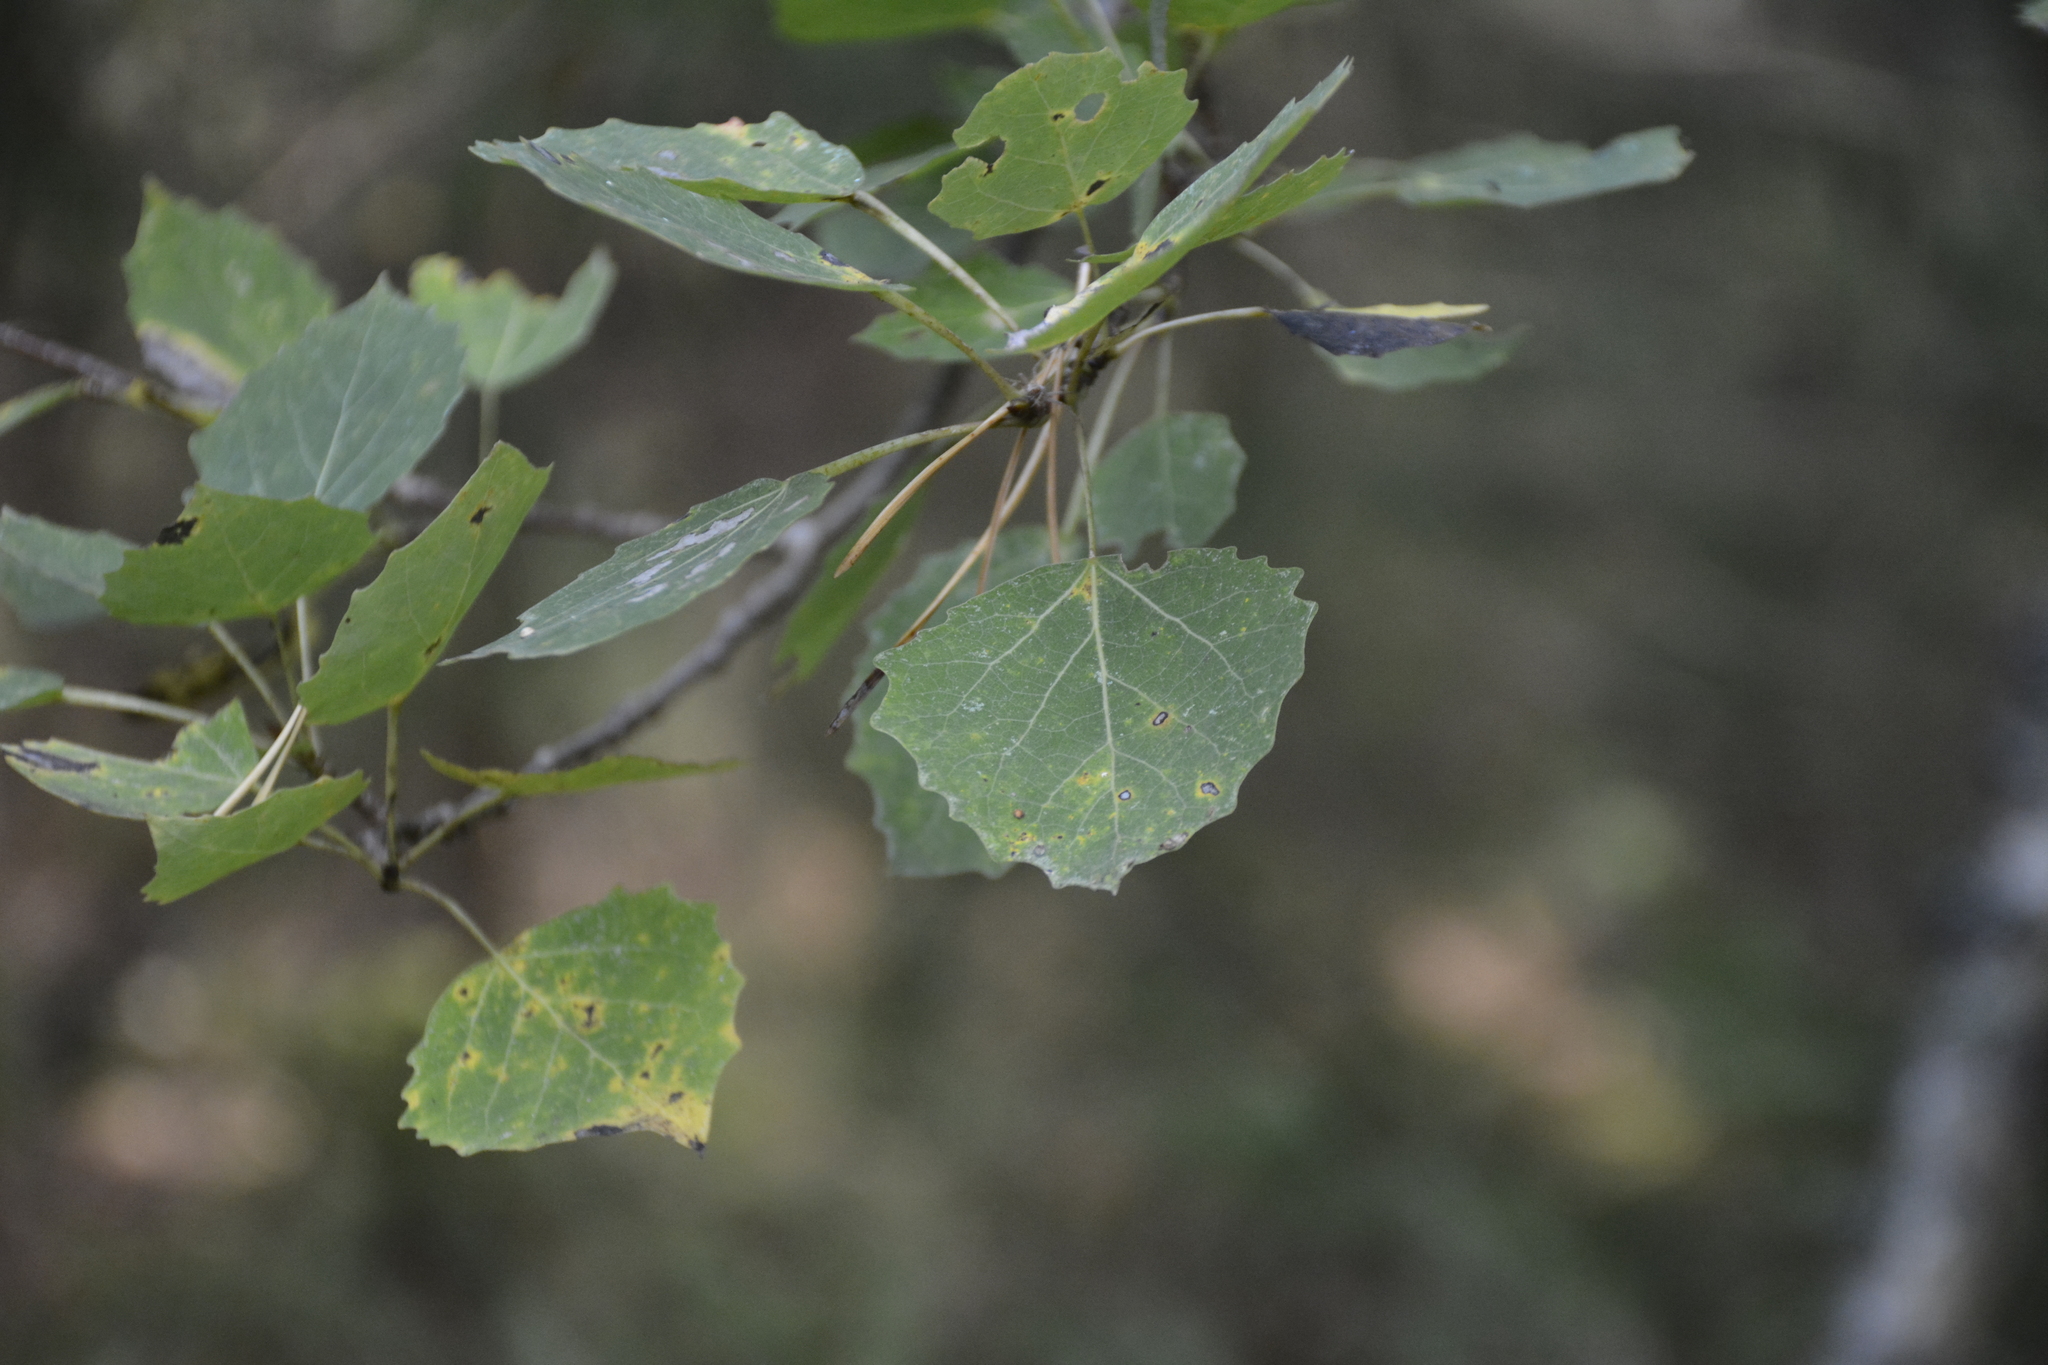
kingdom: Plantae
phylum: Tracheophyta
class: Magnoliopsida
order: Malpighiales
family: Salicaceae
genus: Populus
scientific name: Populus tremula
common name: European aspen
